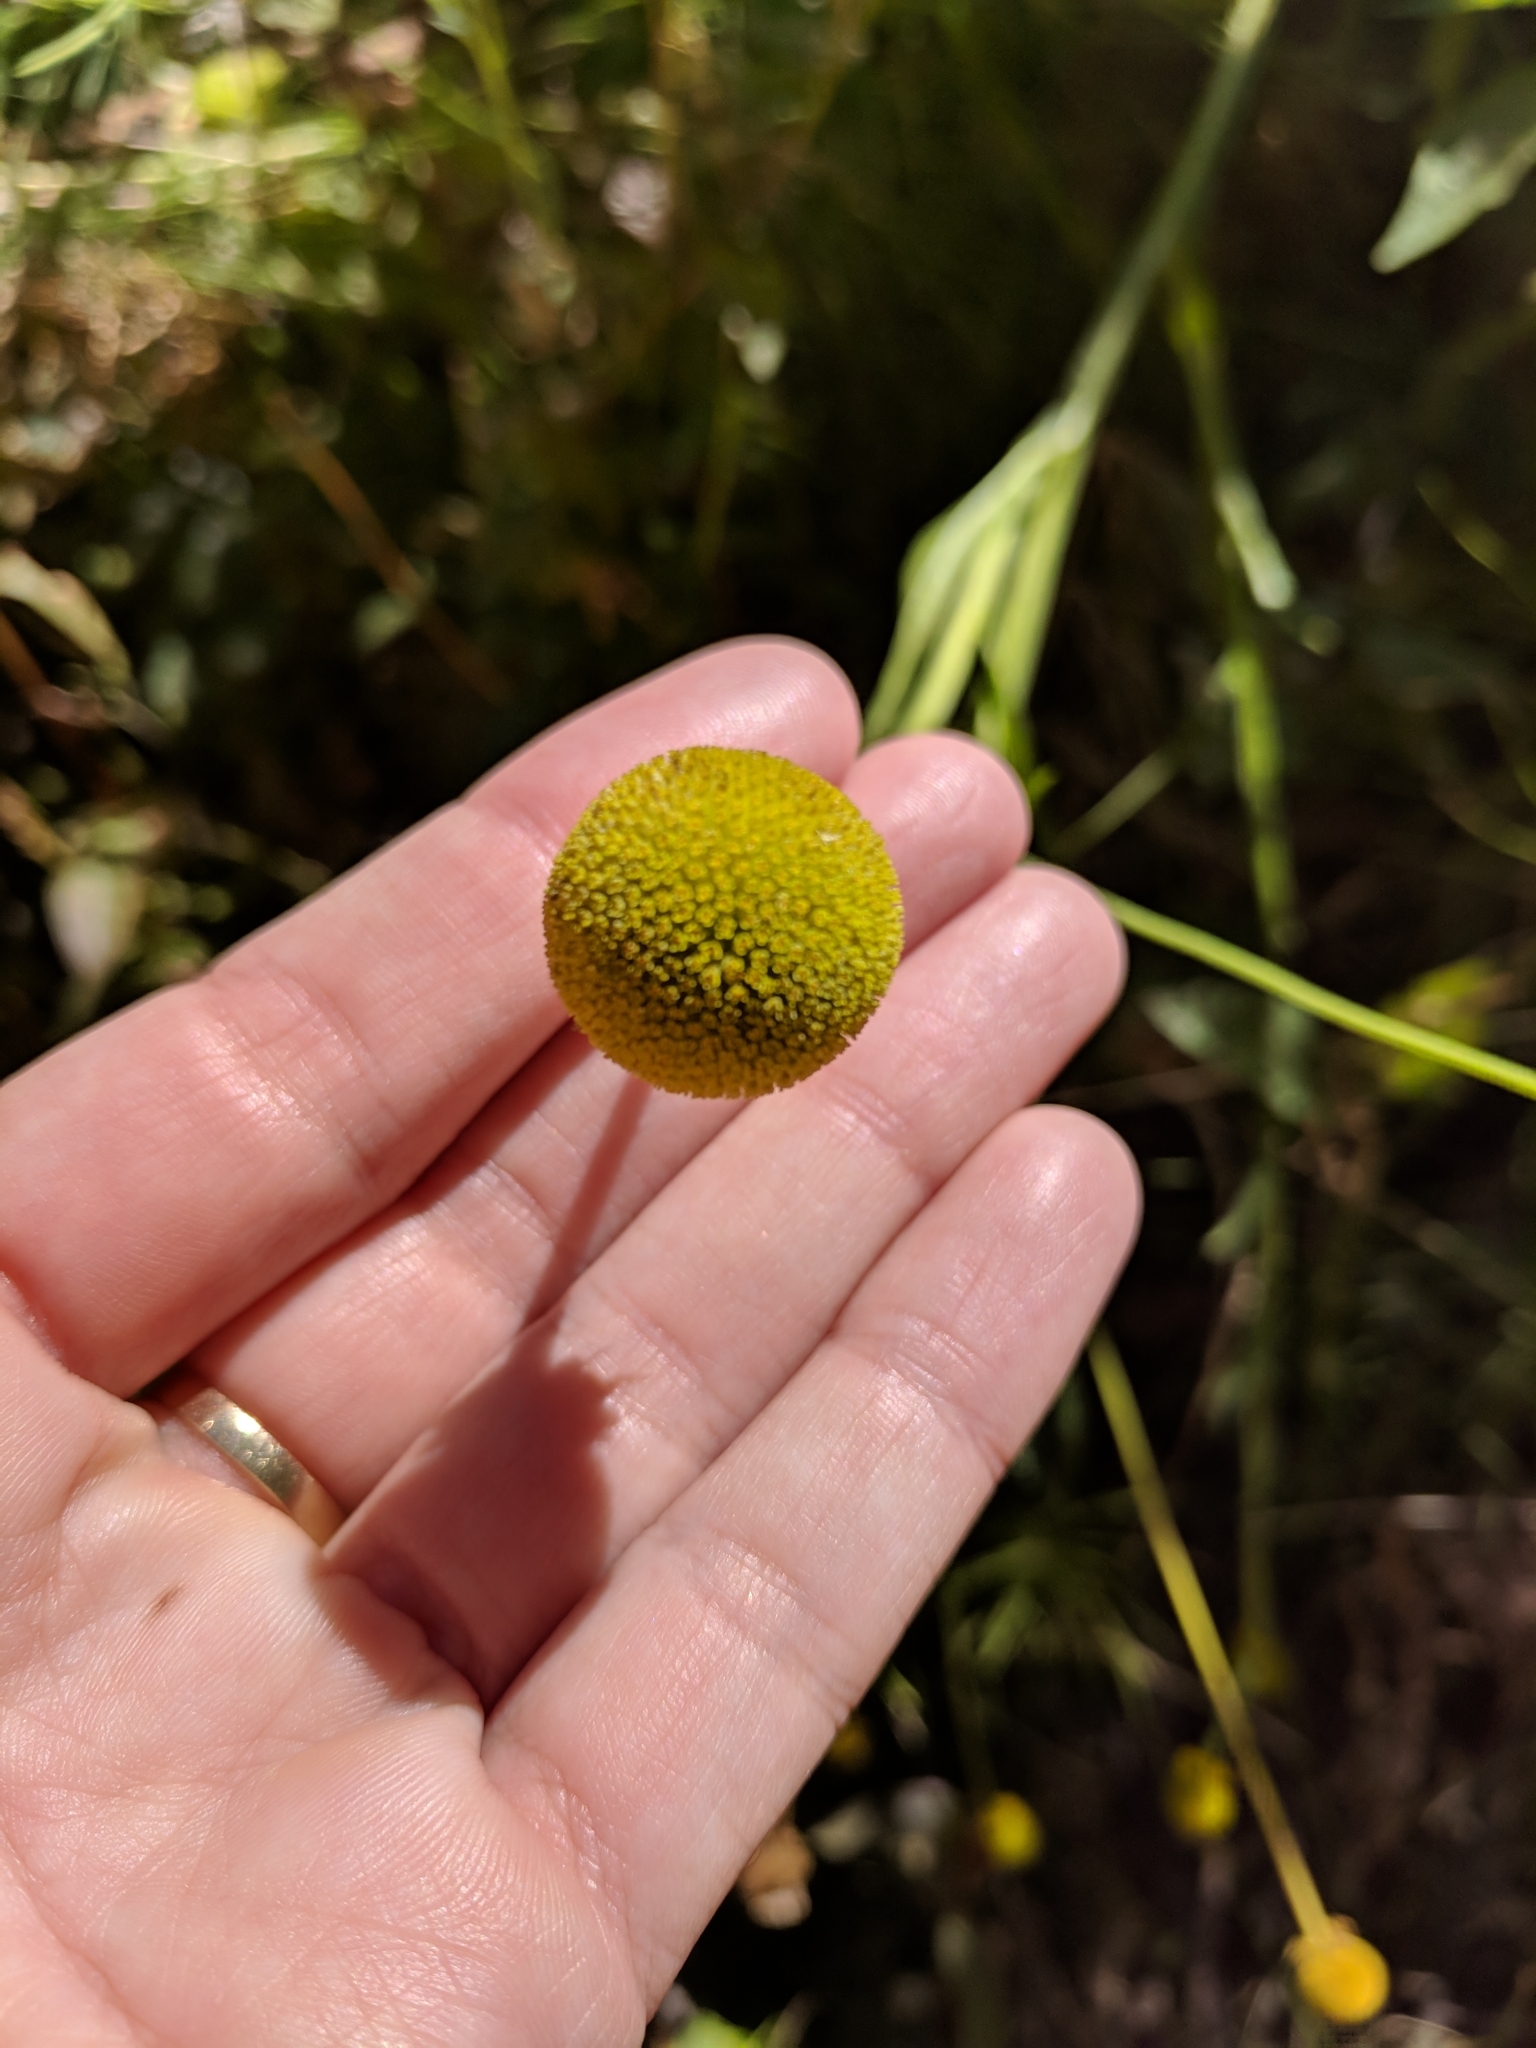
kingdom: Plantae
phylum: Tracheophyta
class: Magnoliopsida
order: Asterales
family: Asteraceae
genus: Helenium
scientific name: Helenium puberulum
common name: Sneezewort
